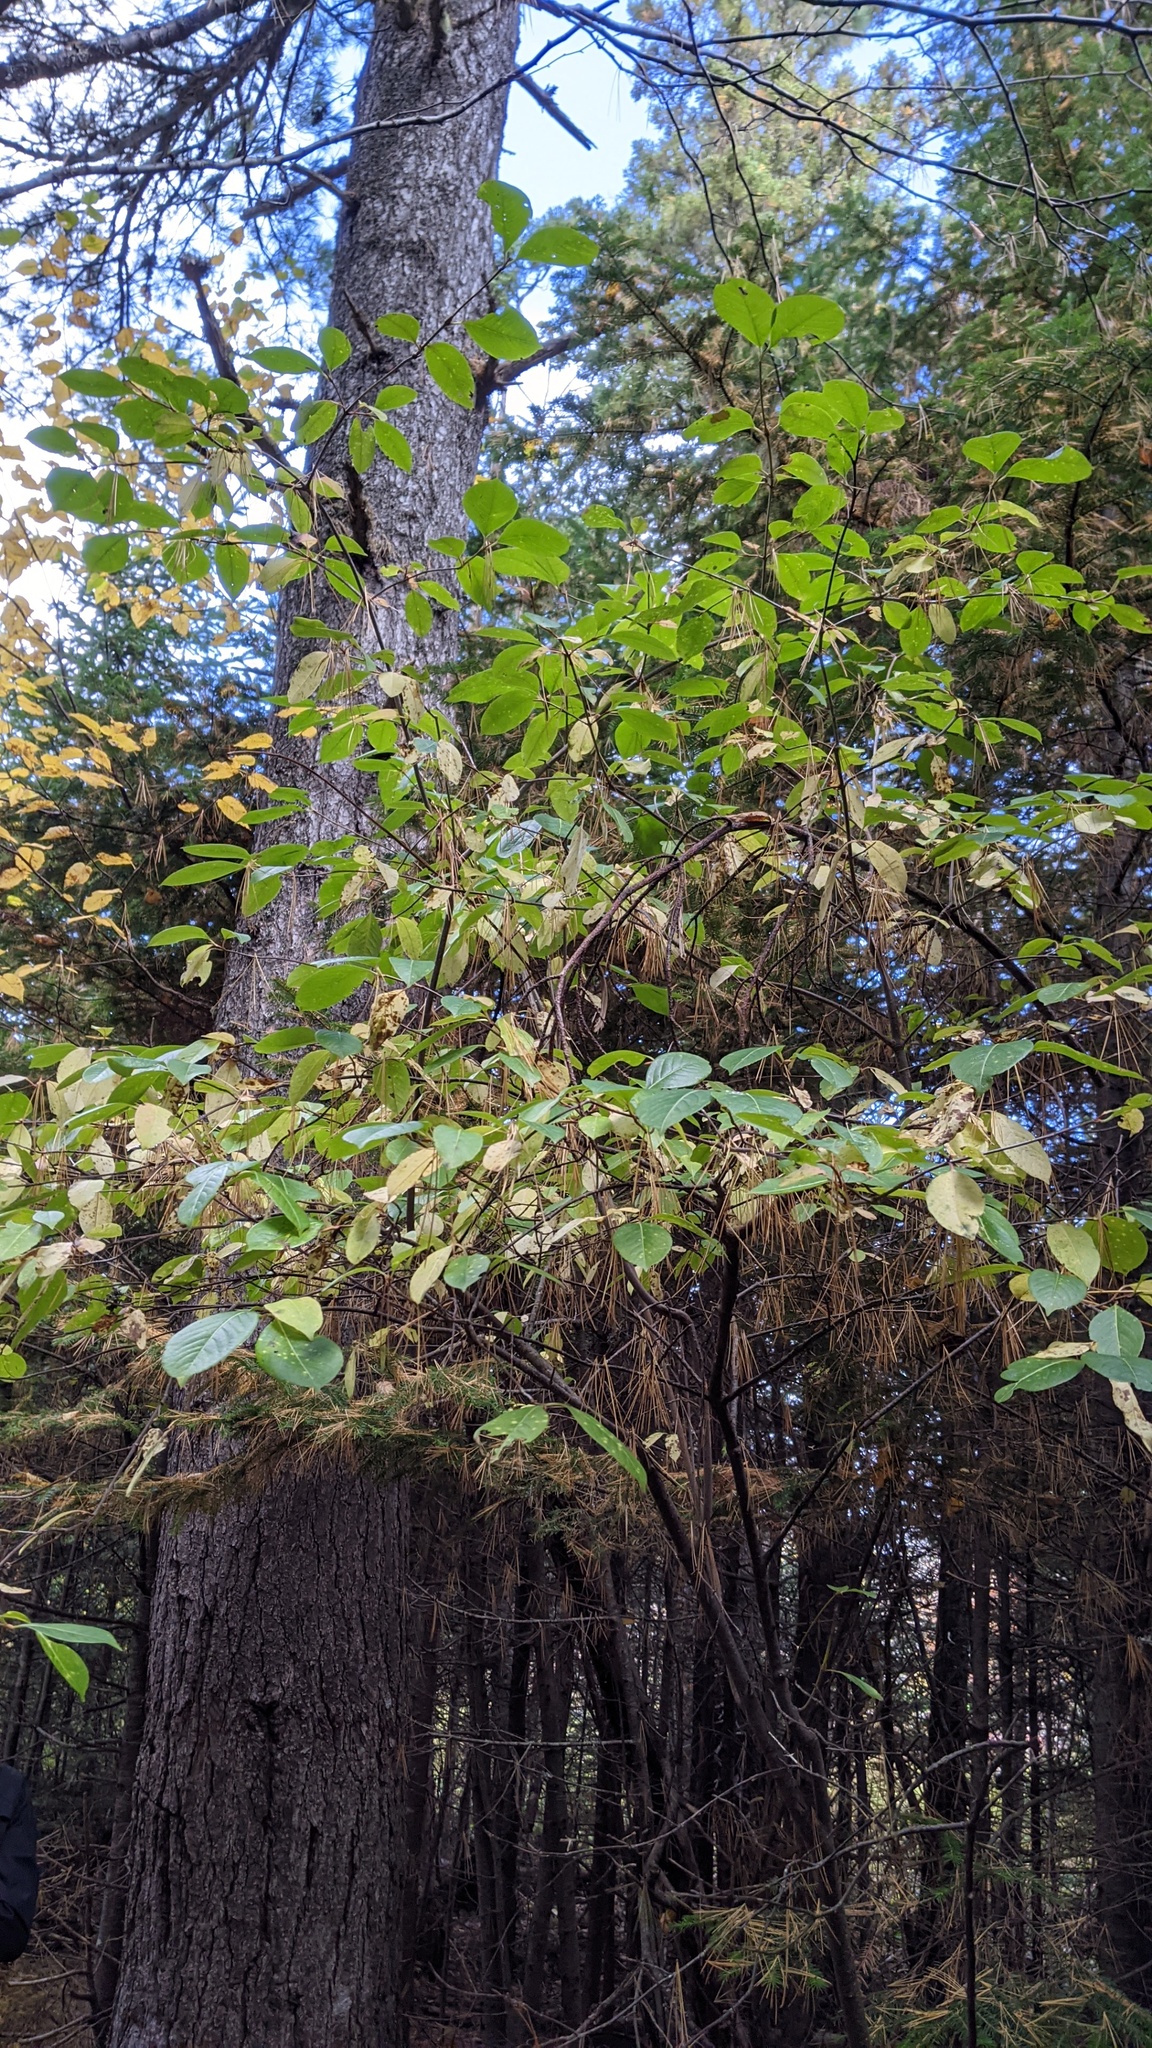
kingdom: Plantae
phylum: Tracheophyta
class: Magnoliopsida
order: Dipsacales
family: Viburnaceae
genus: Viburnum
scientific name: Viburnum cassinoides
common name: Swamp haw
